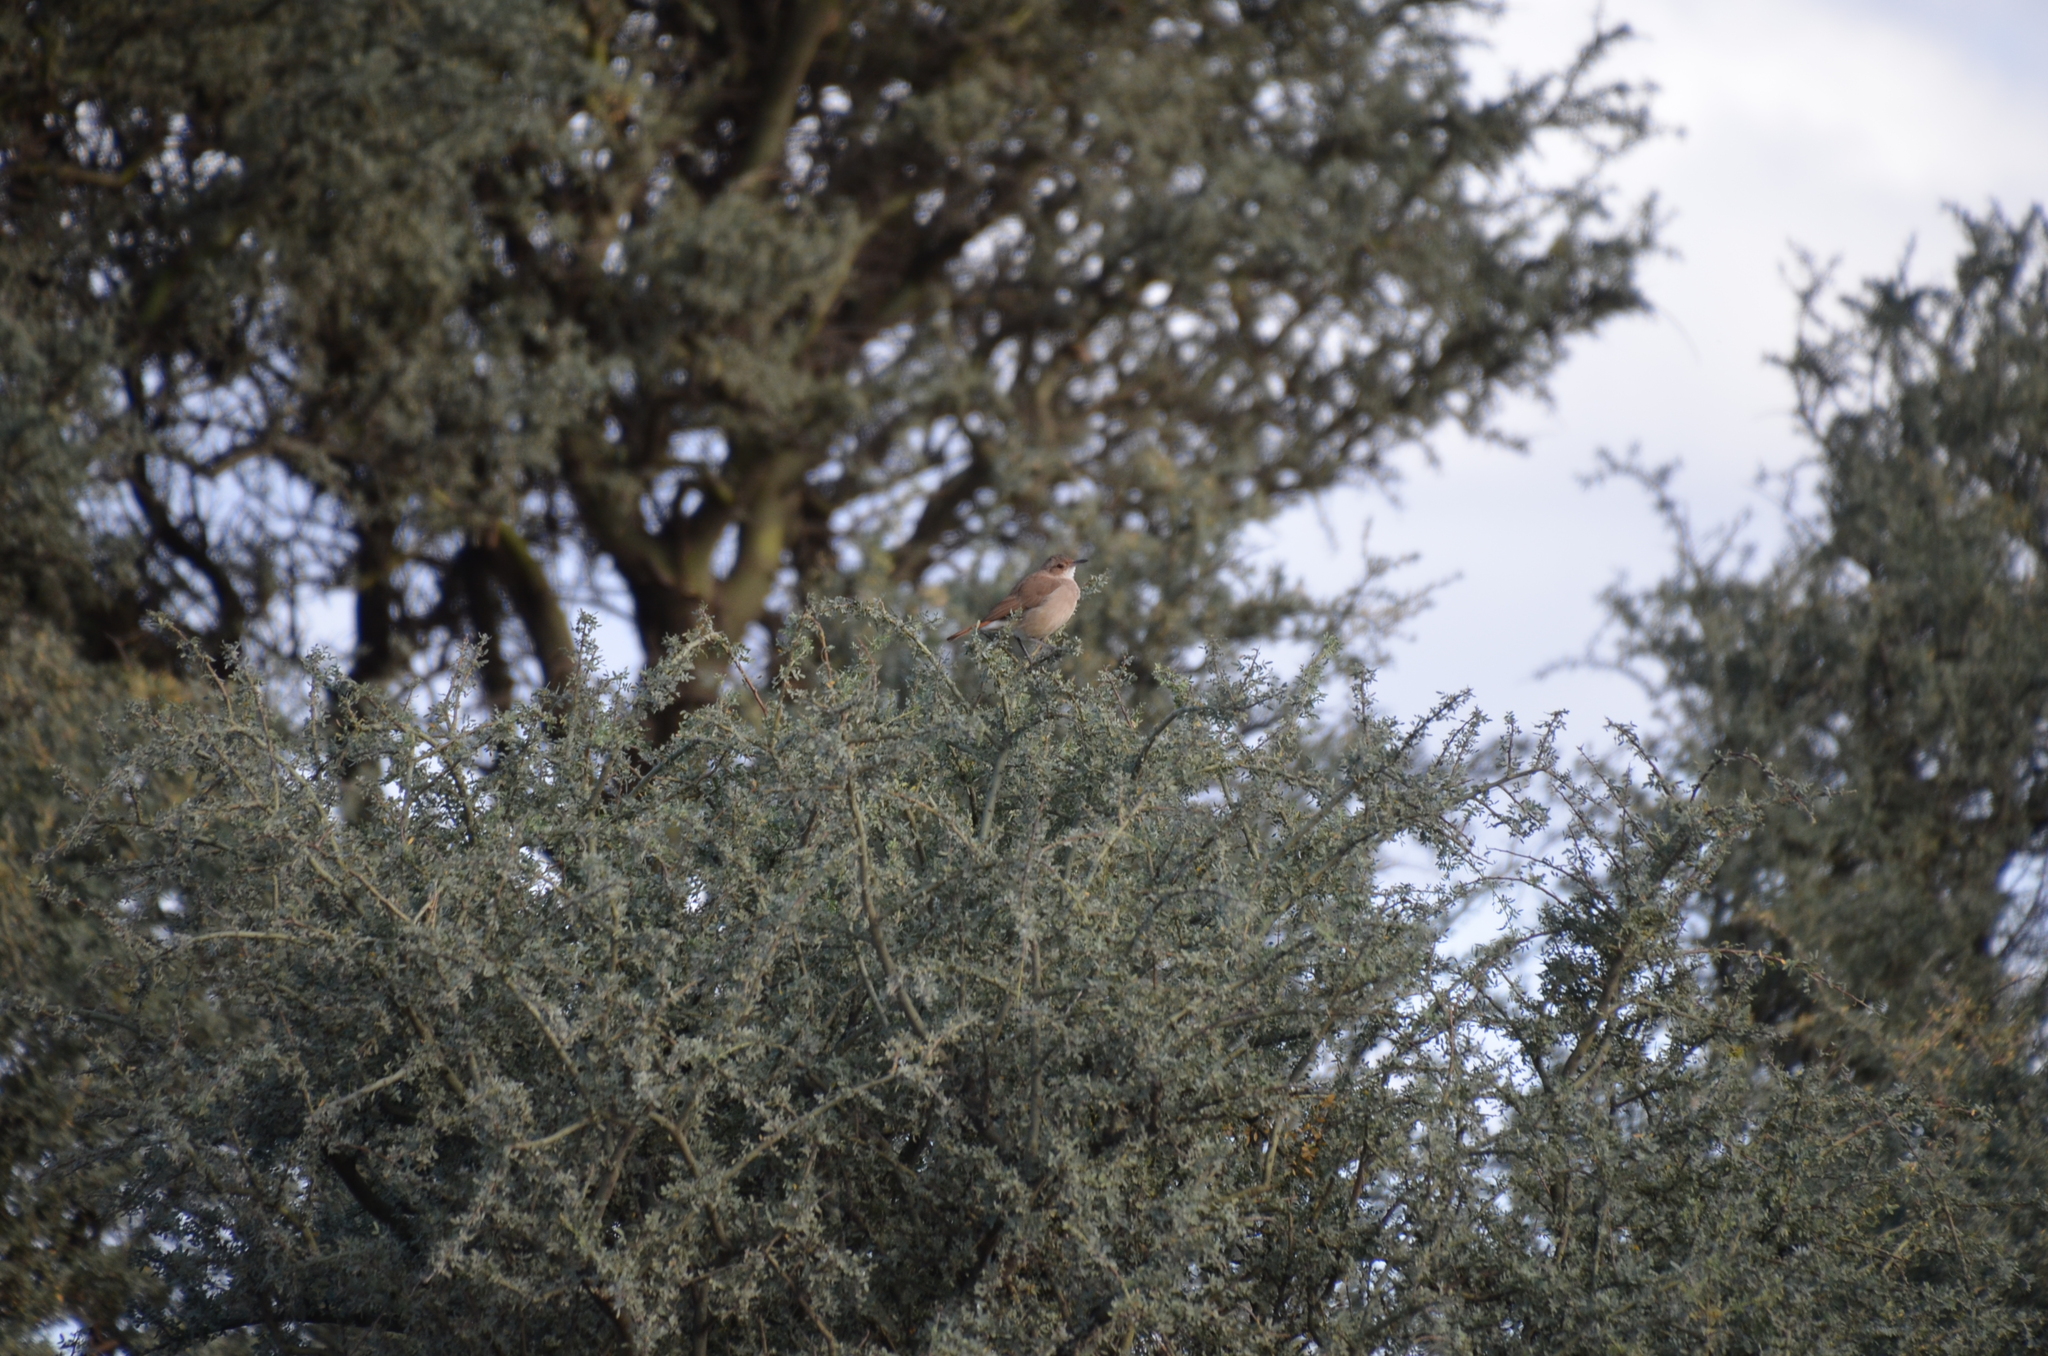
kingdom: Animalia
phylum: Chordata
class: Aves
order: Passeriformes
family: Furnariidae
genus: Furnarius
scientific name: Furnarius rufus
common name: Rufous hornero
